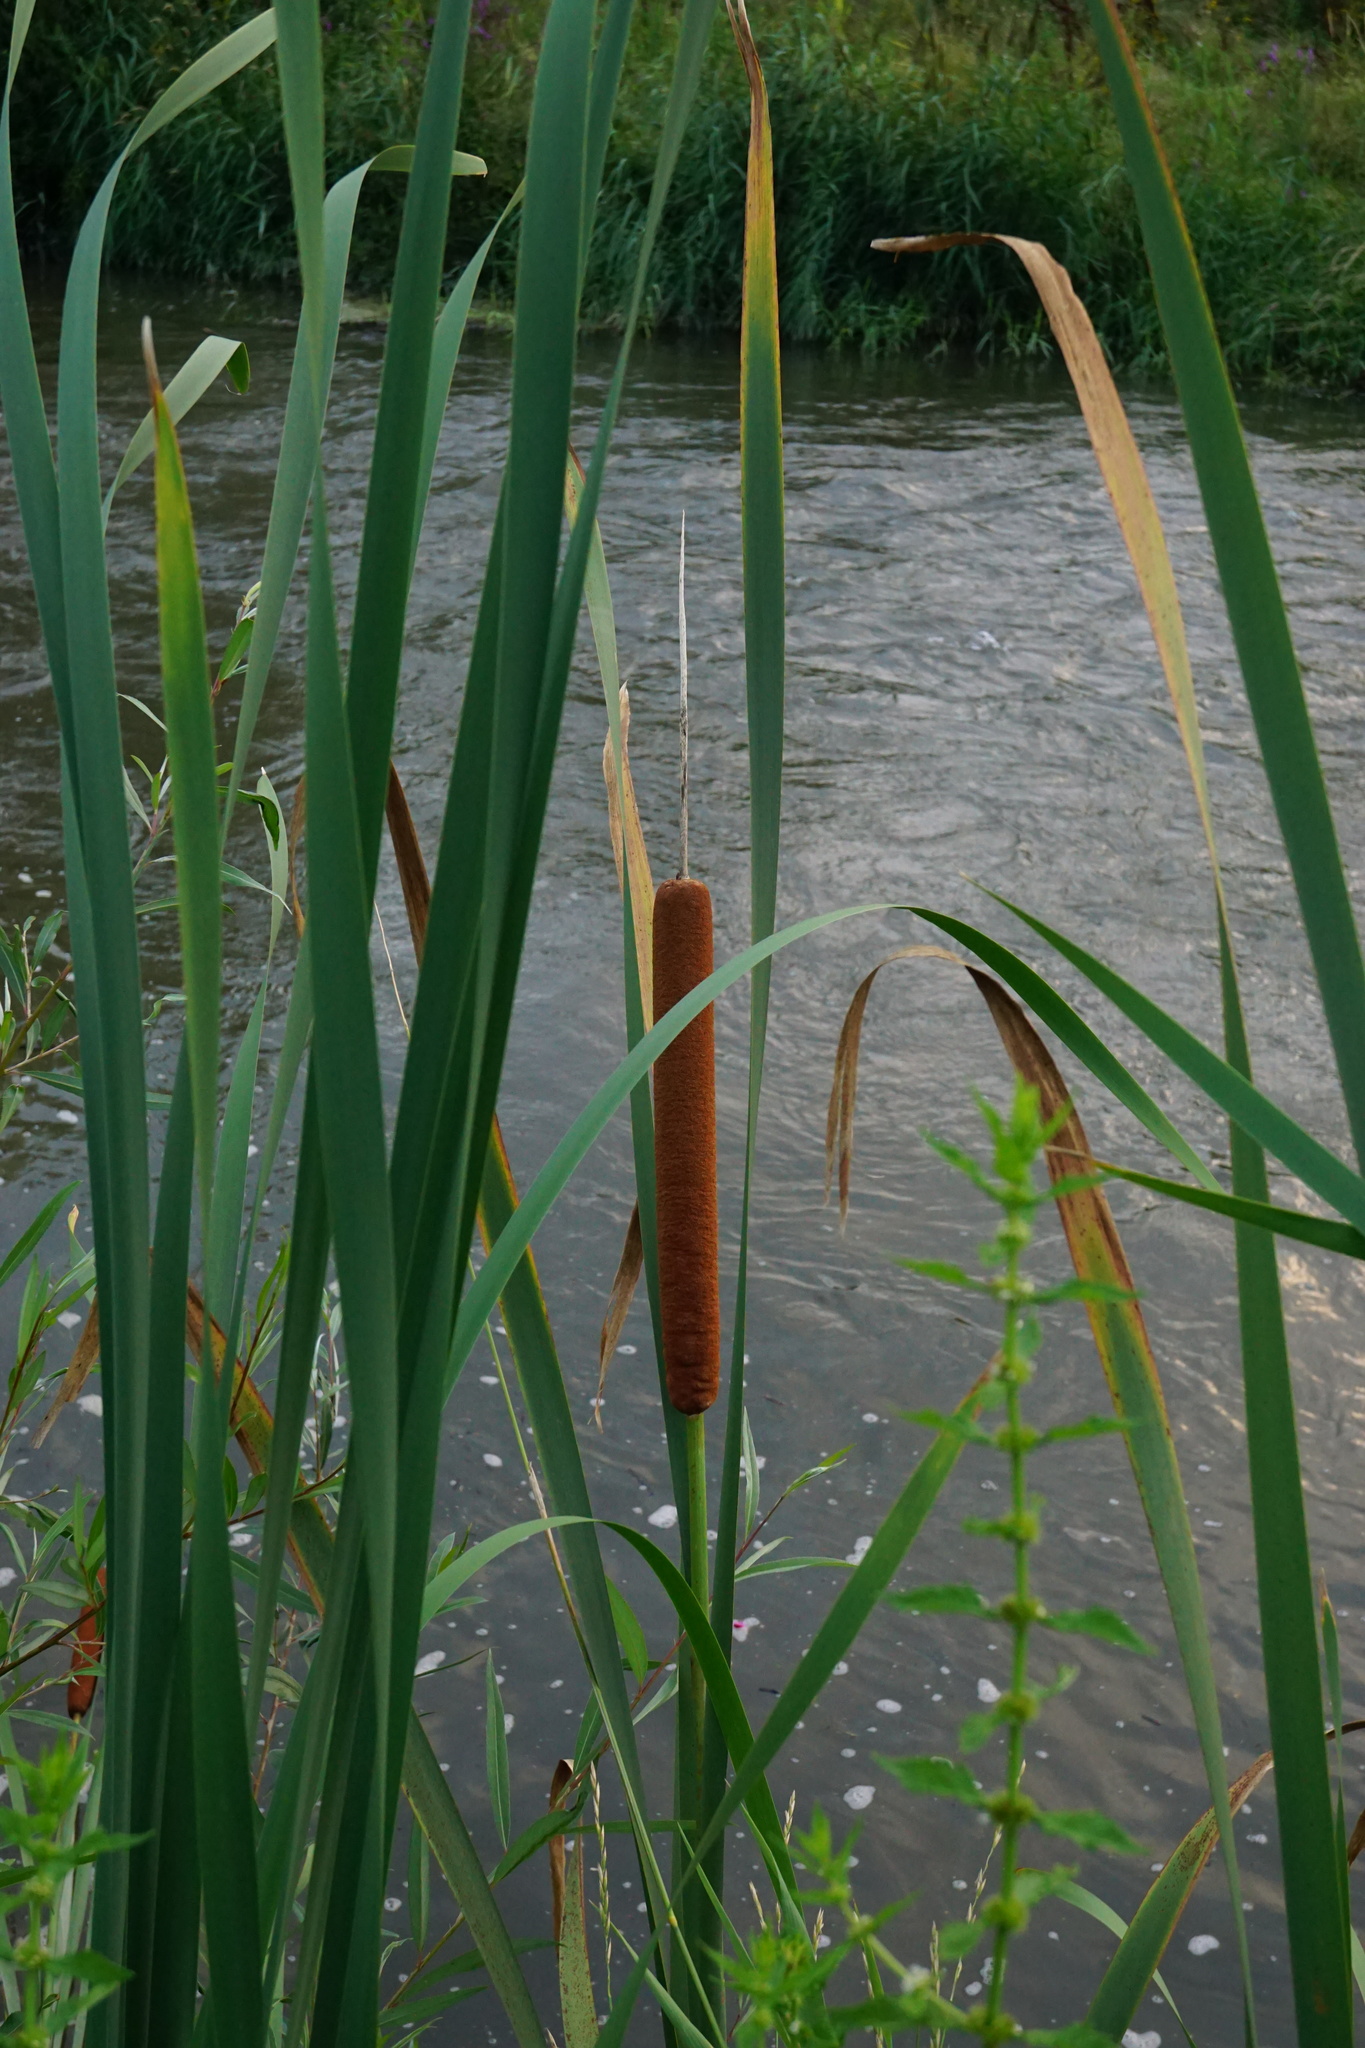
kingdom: Plantae
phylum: Tracheophyta
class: Liliopsida
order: Poales
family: Typhaceae
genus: Typha
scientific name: Typha latifolia
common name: Broadleaf cattail
